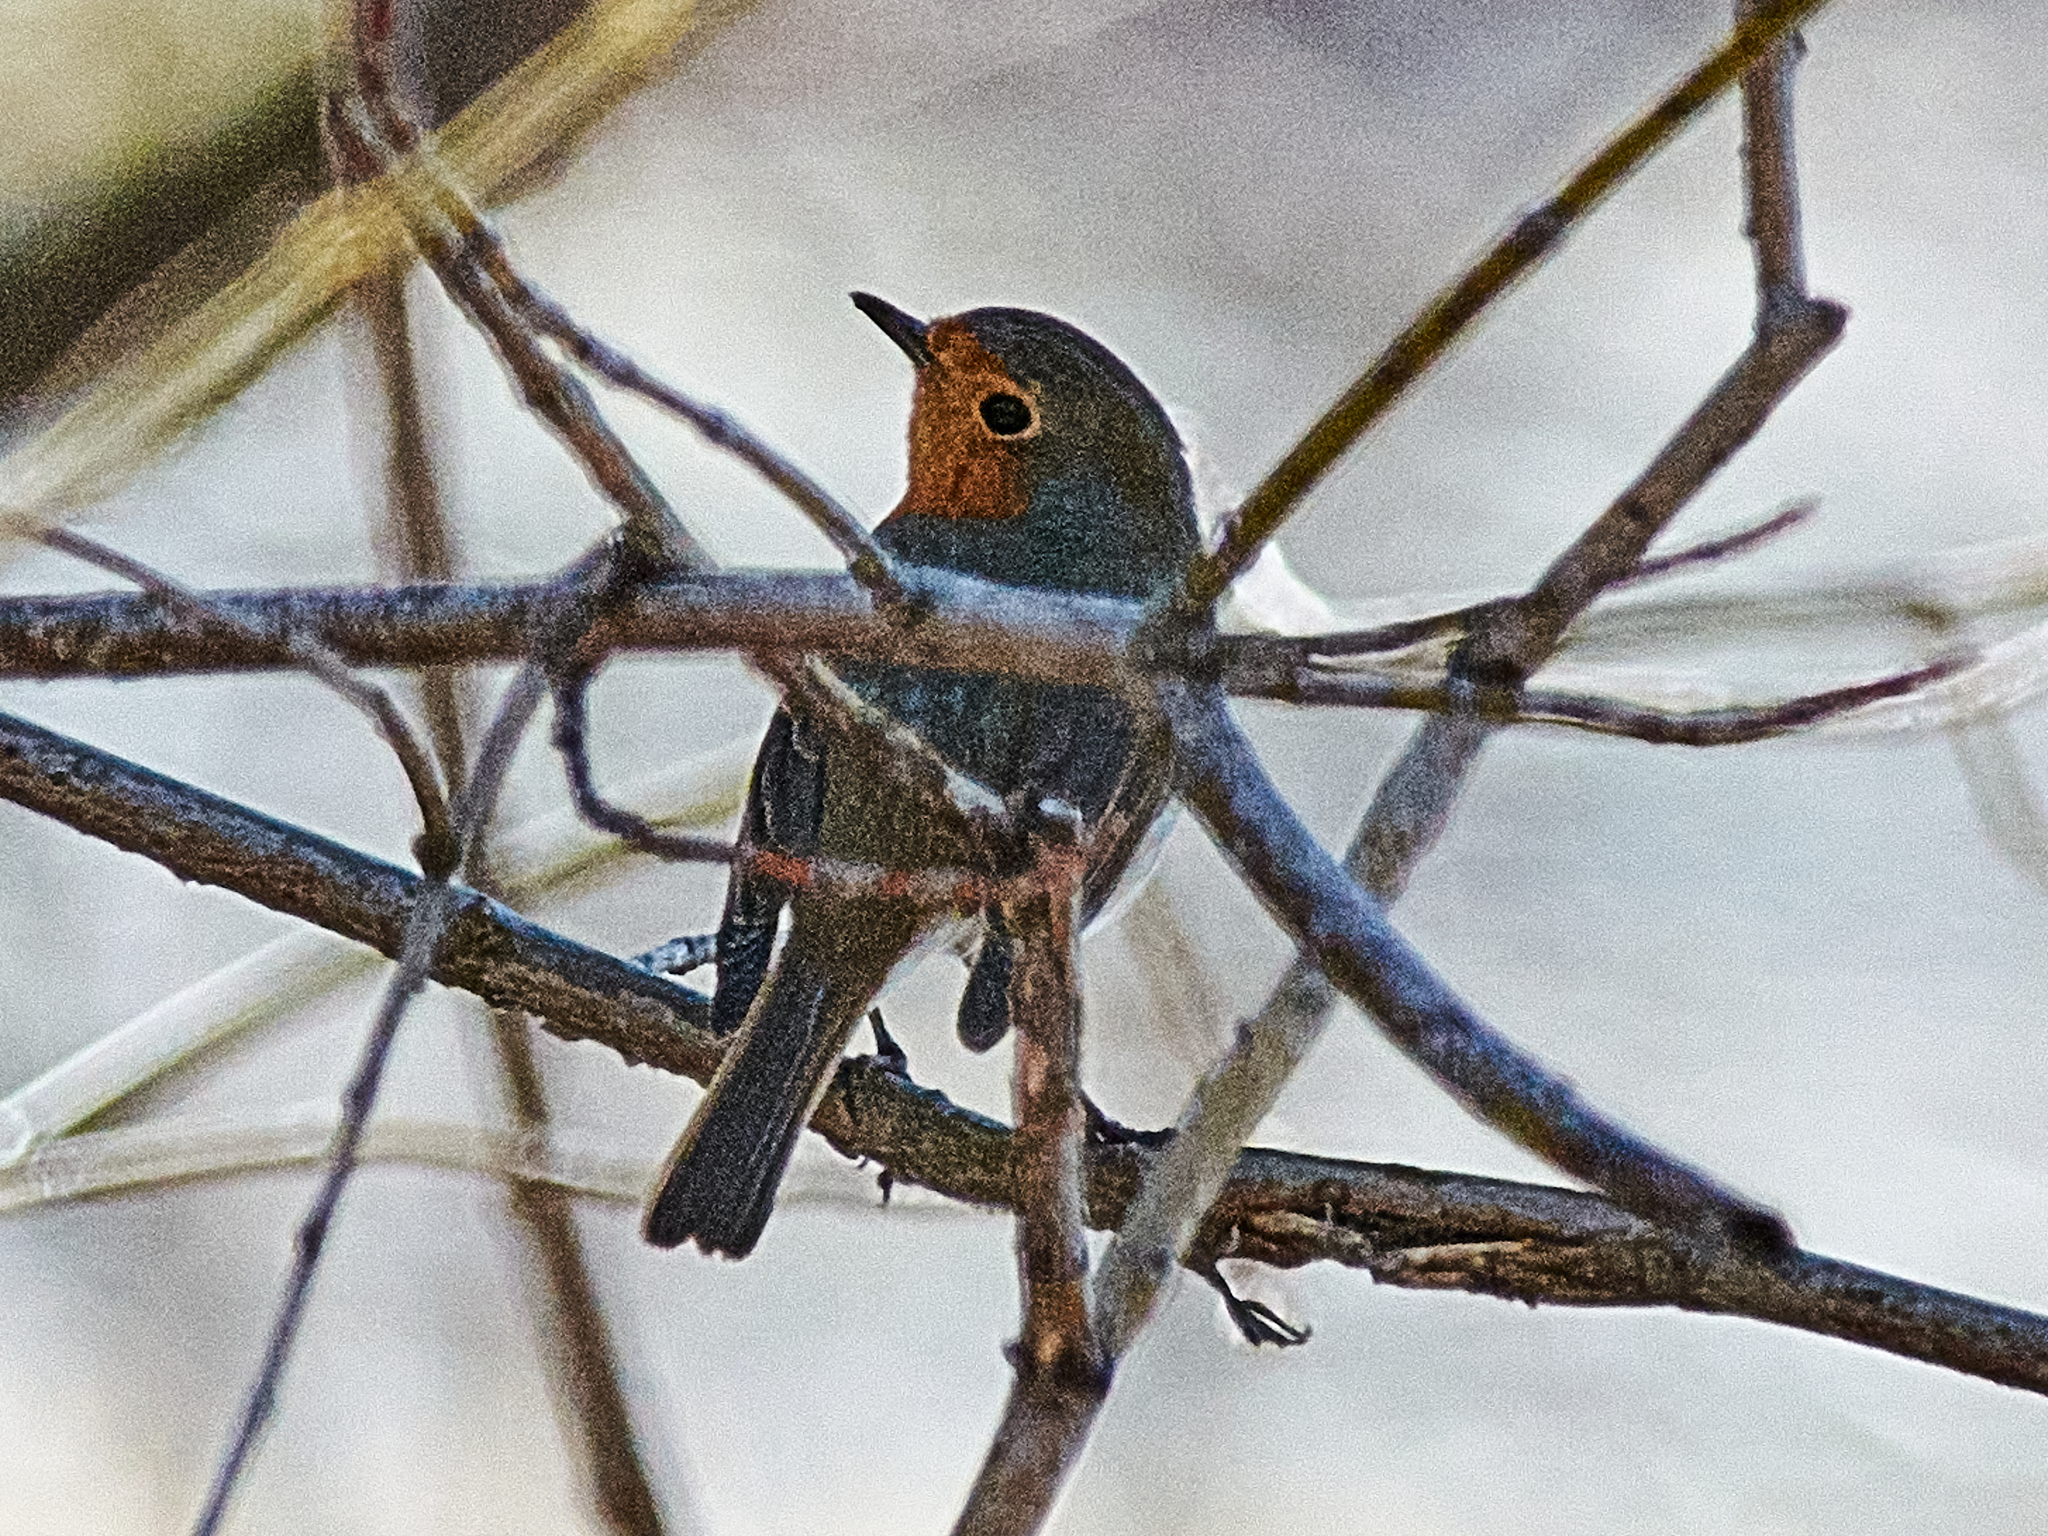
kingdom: Animalia
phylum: Chordata
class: Aves
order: Passeriformes
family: Muscicapidae
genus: Erithacus
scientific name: Erithacus rubecula
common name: European robin
